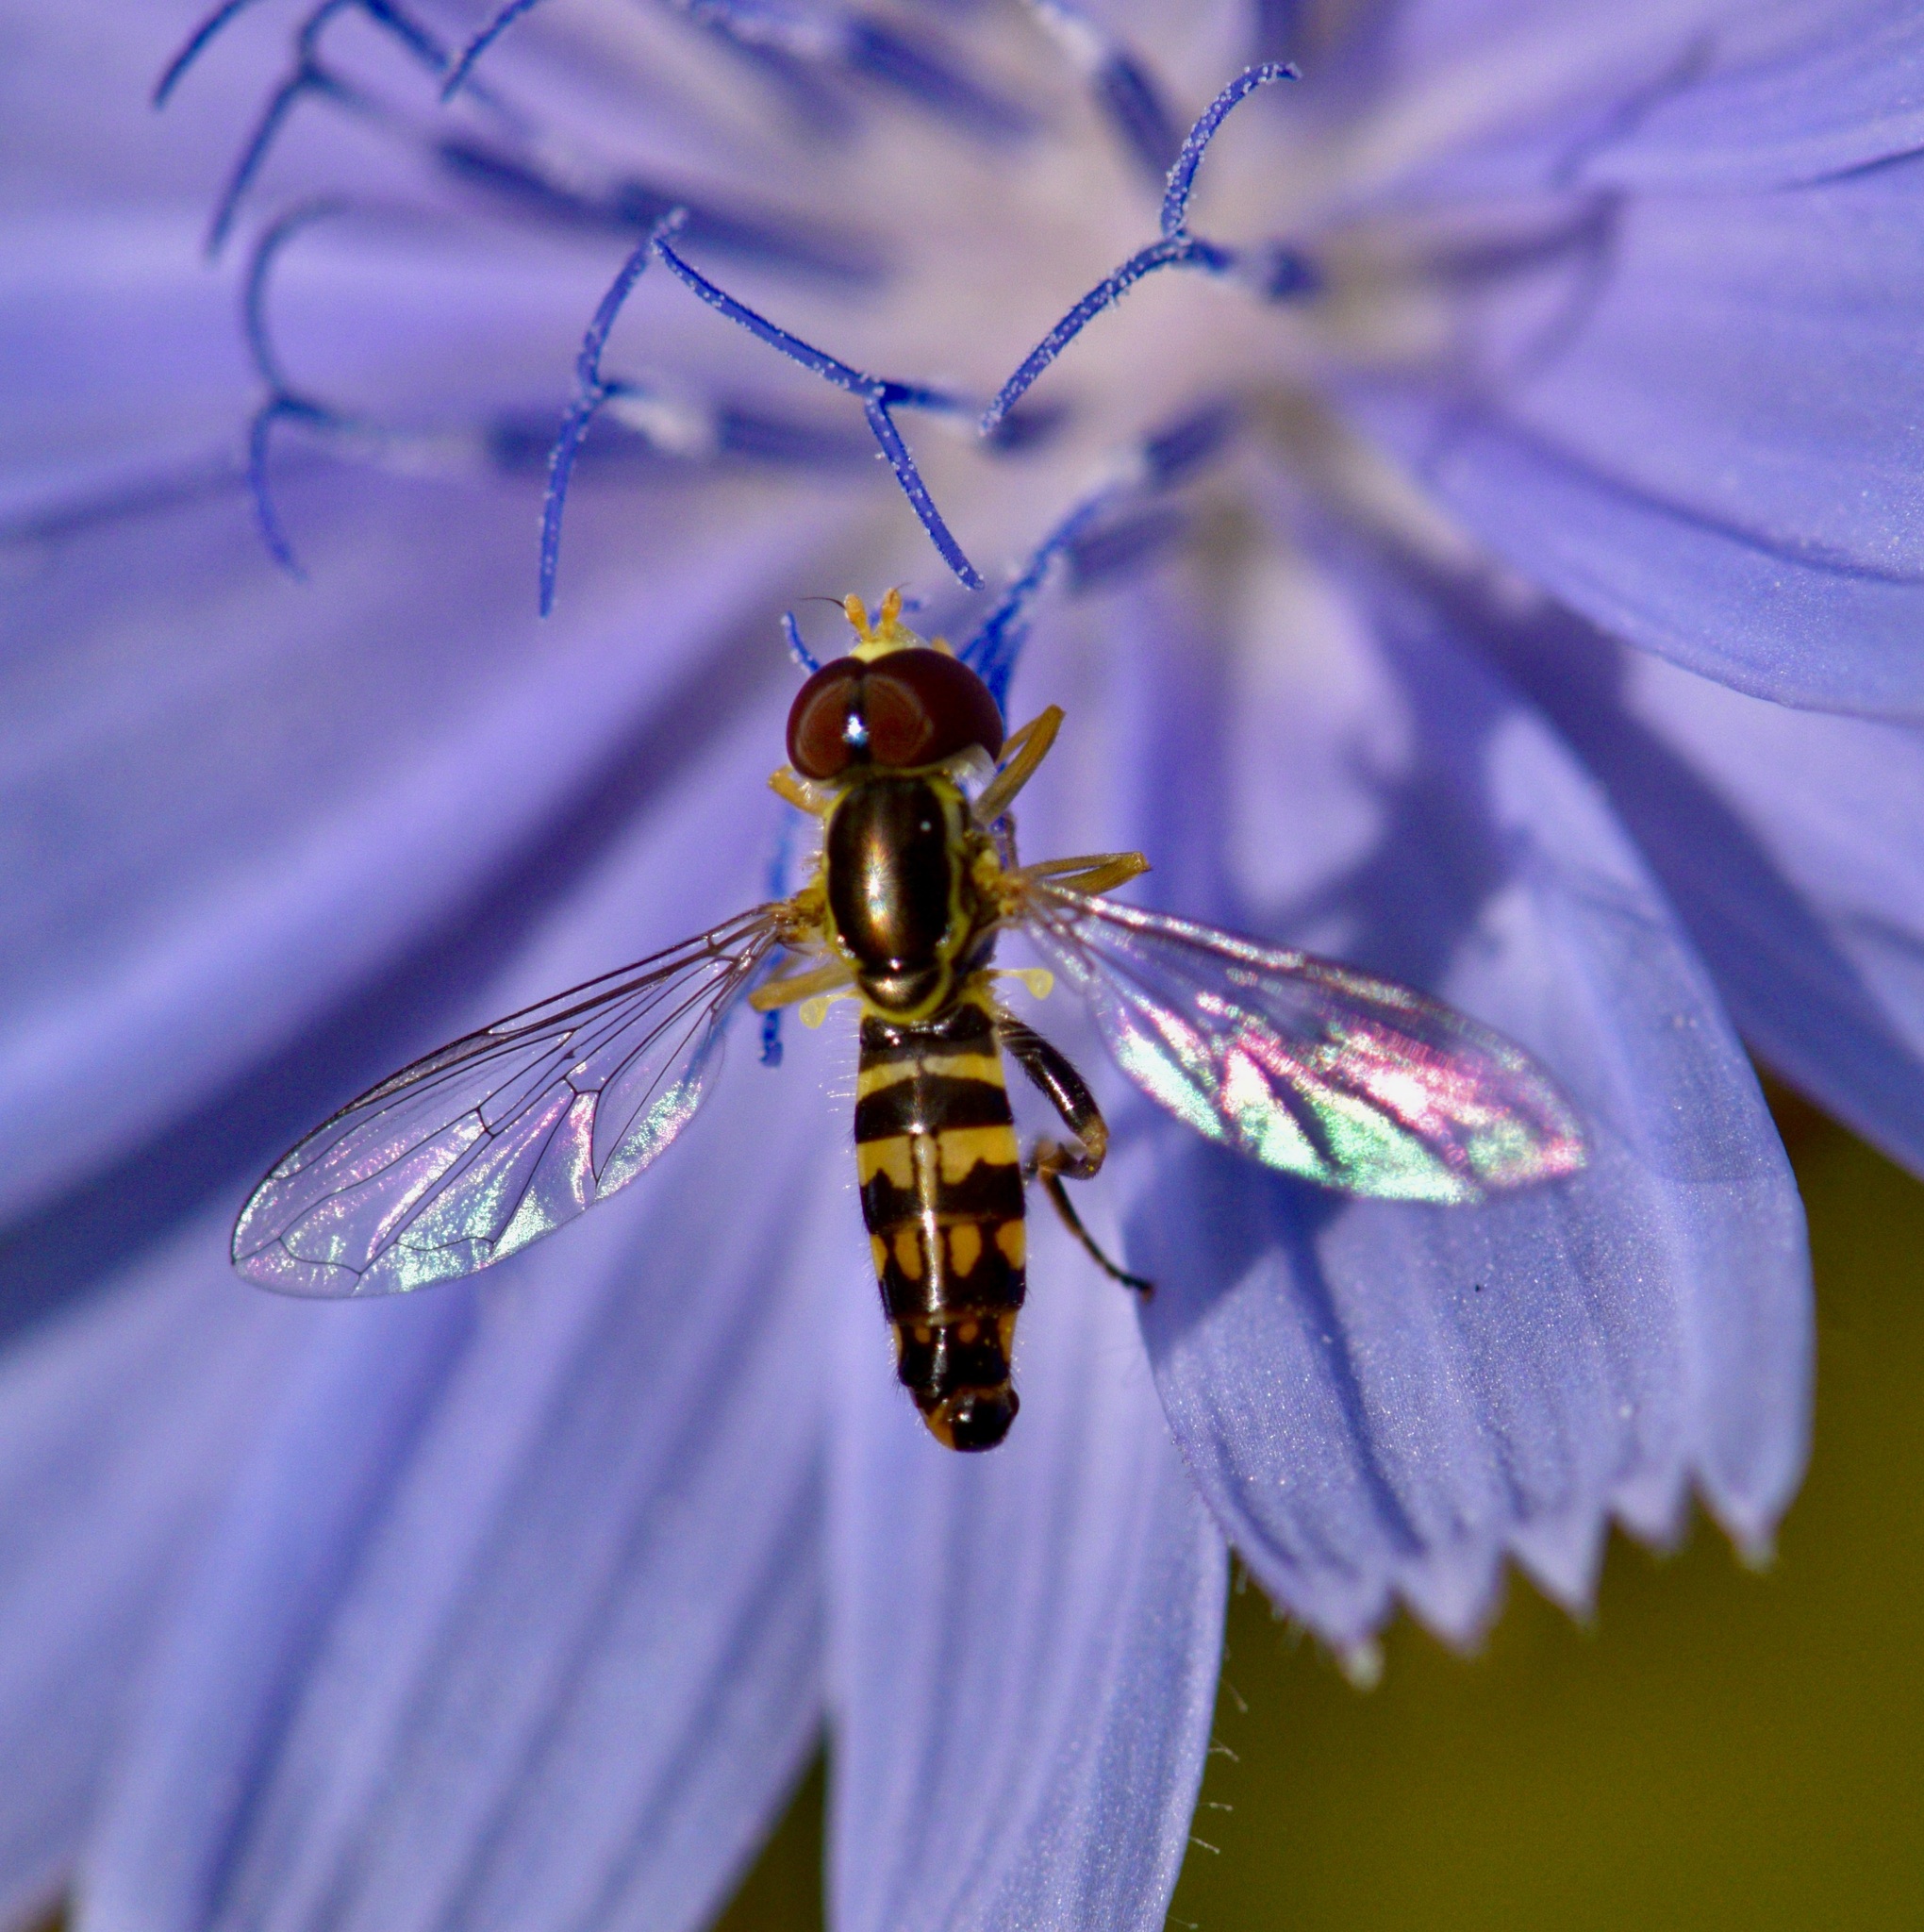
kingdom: Animalia
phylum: Arthropoda
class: Insecta
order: Diptera
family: Syrphidae
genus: Toxomerus
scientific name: Toxomerus geminatus
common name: Eastern calligrapher
